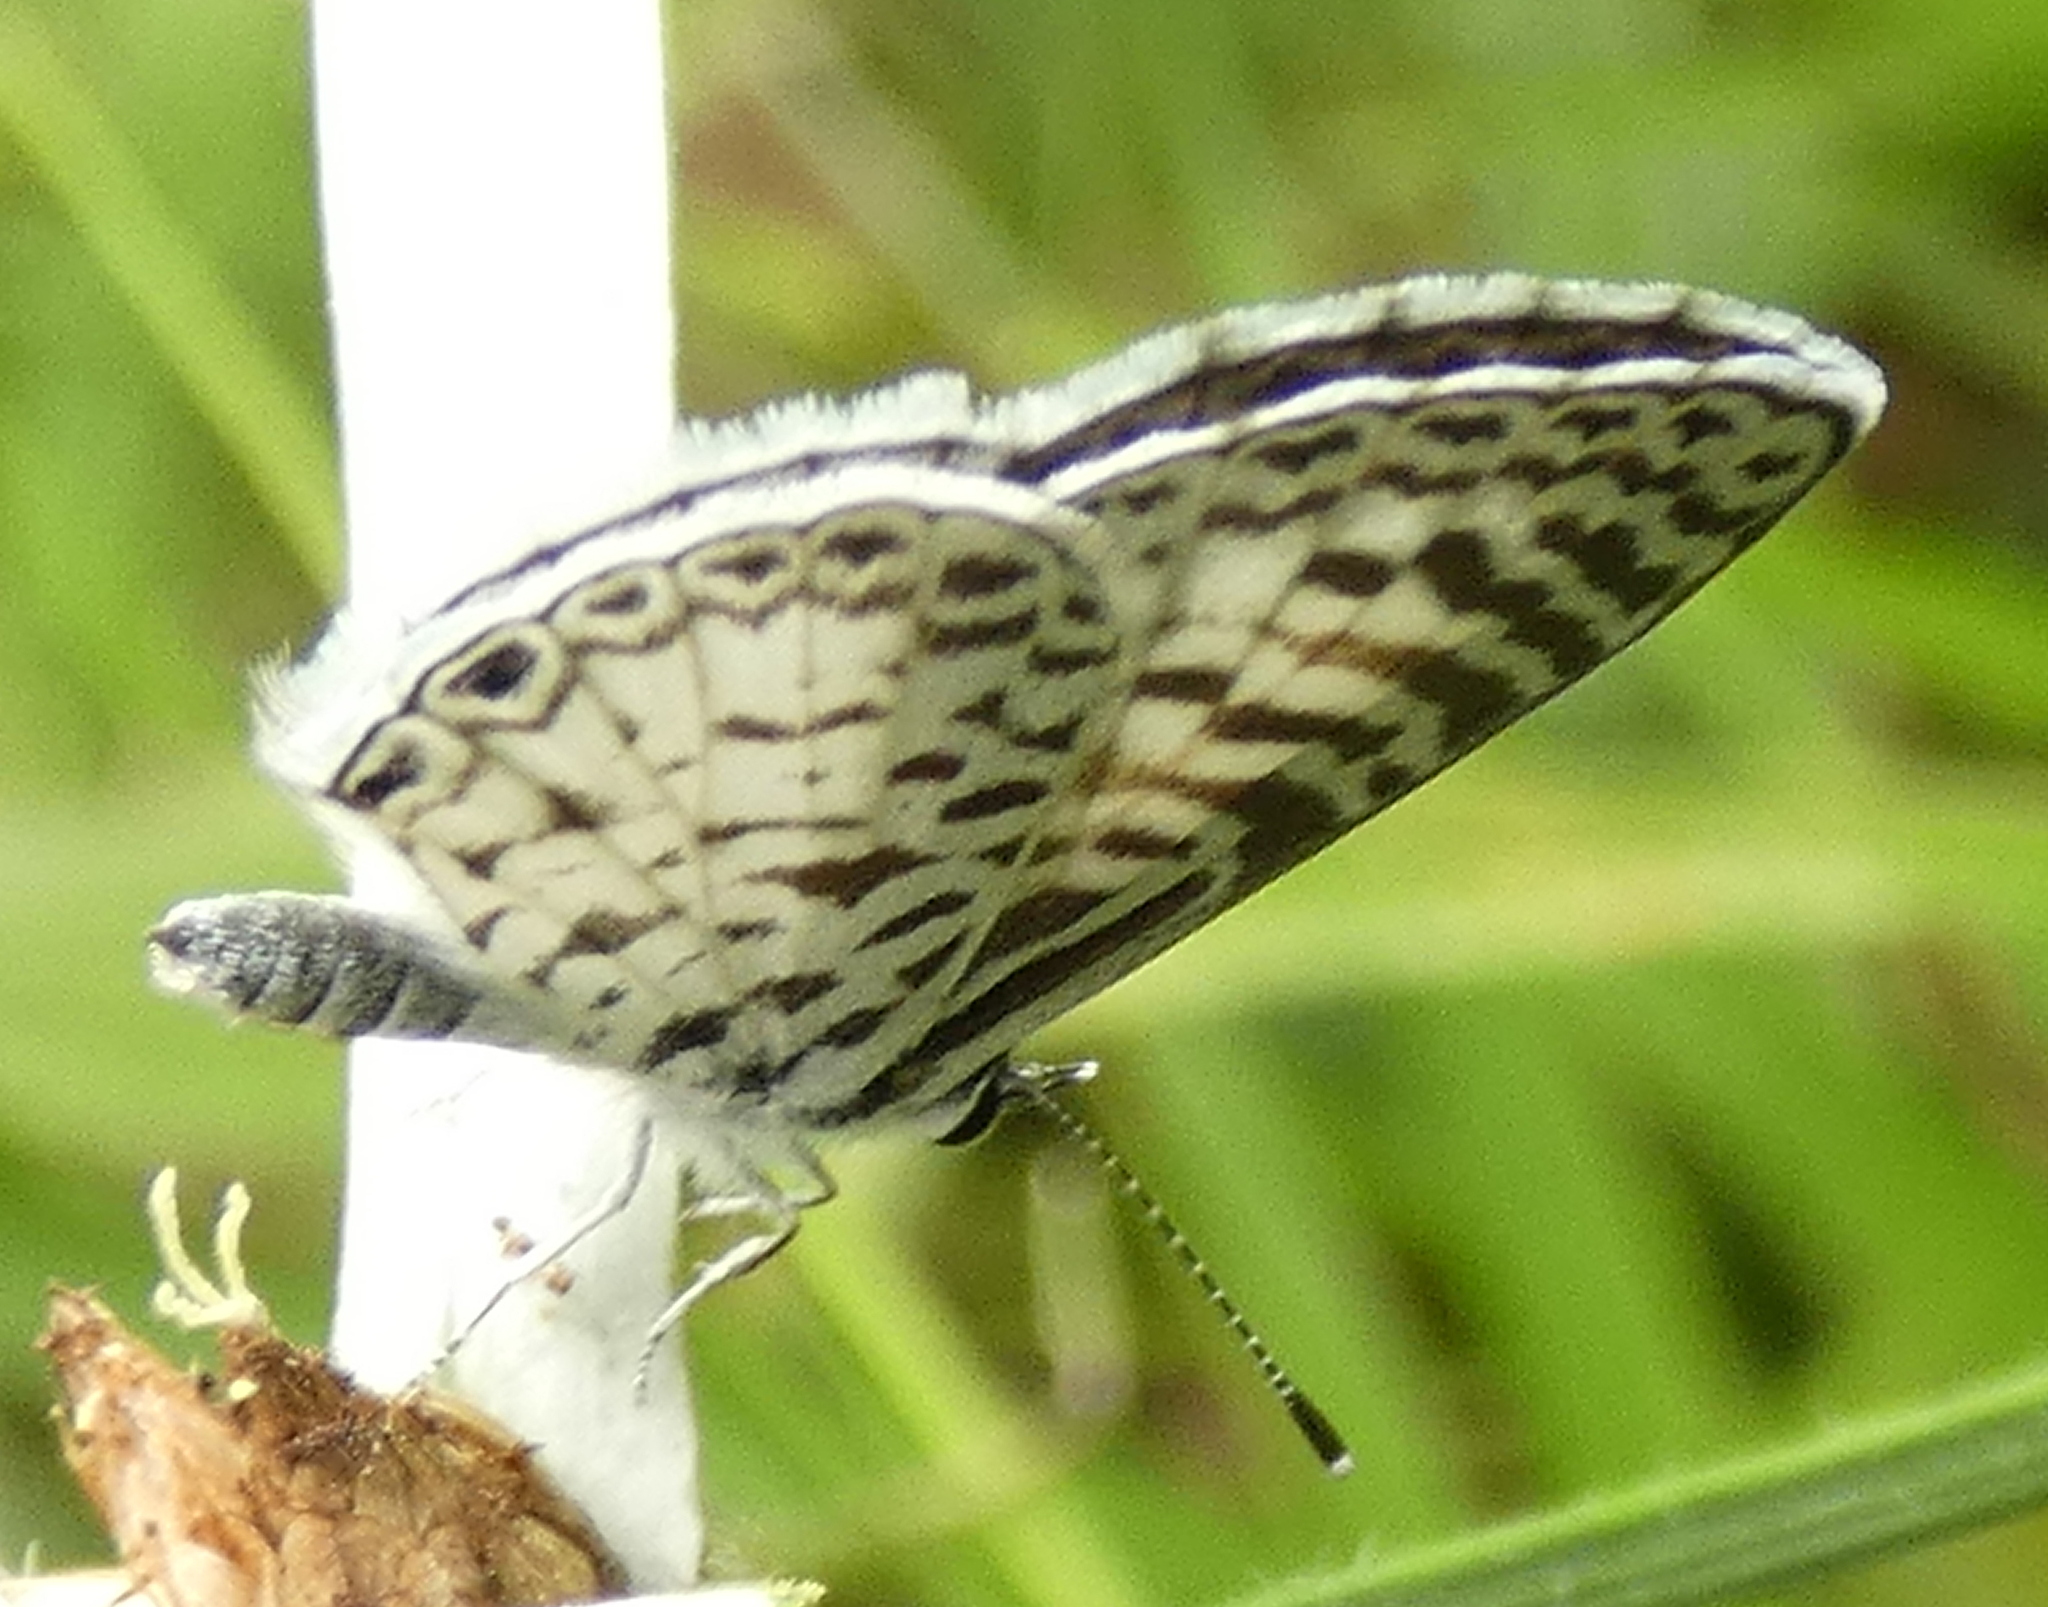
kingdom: Animalia
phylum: Arthropoda
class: Insecta
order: Lepidoptera
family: Lycaenidae
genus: Leptotes
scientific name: Leptotes cassius
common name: Cassius blue
